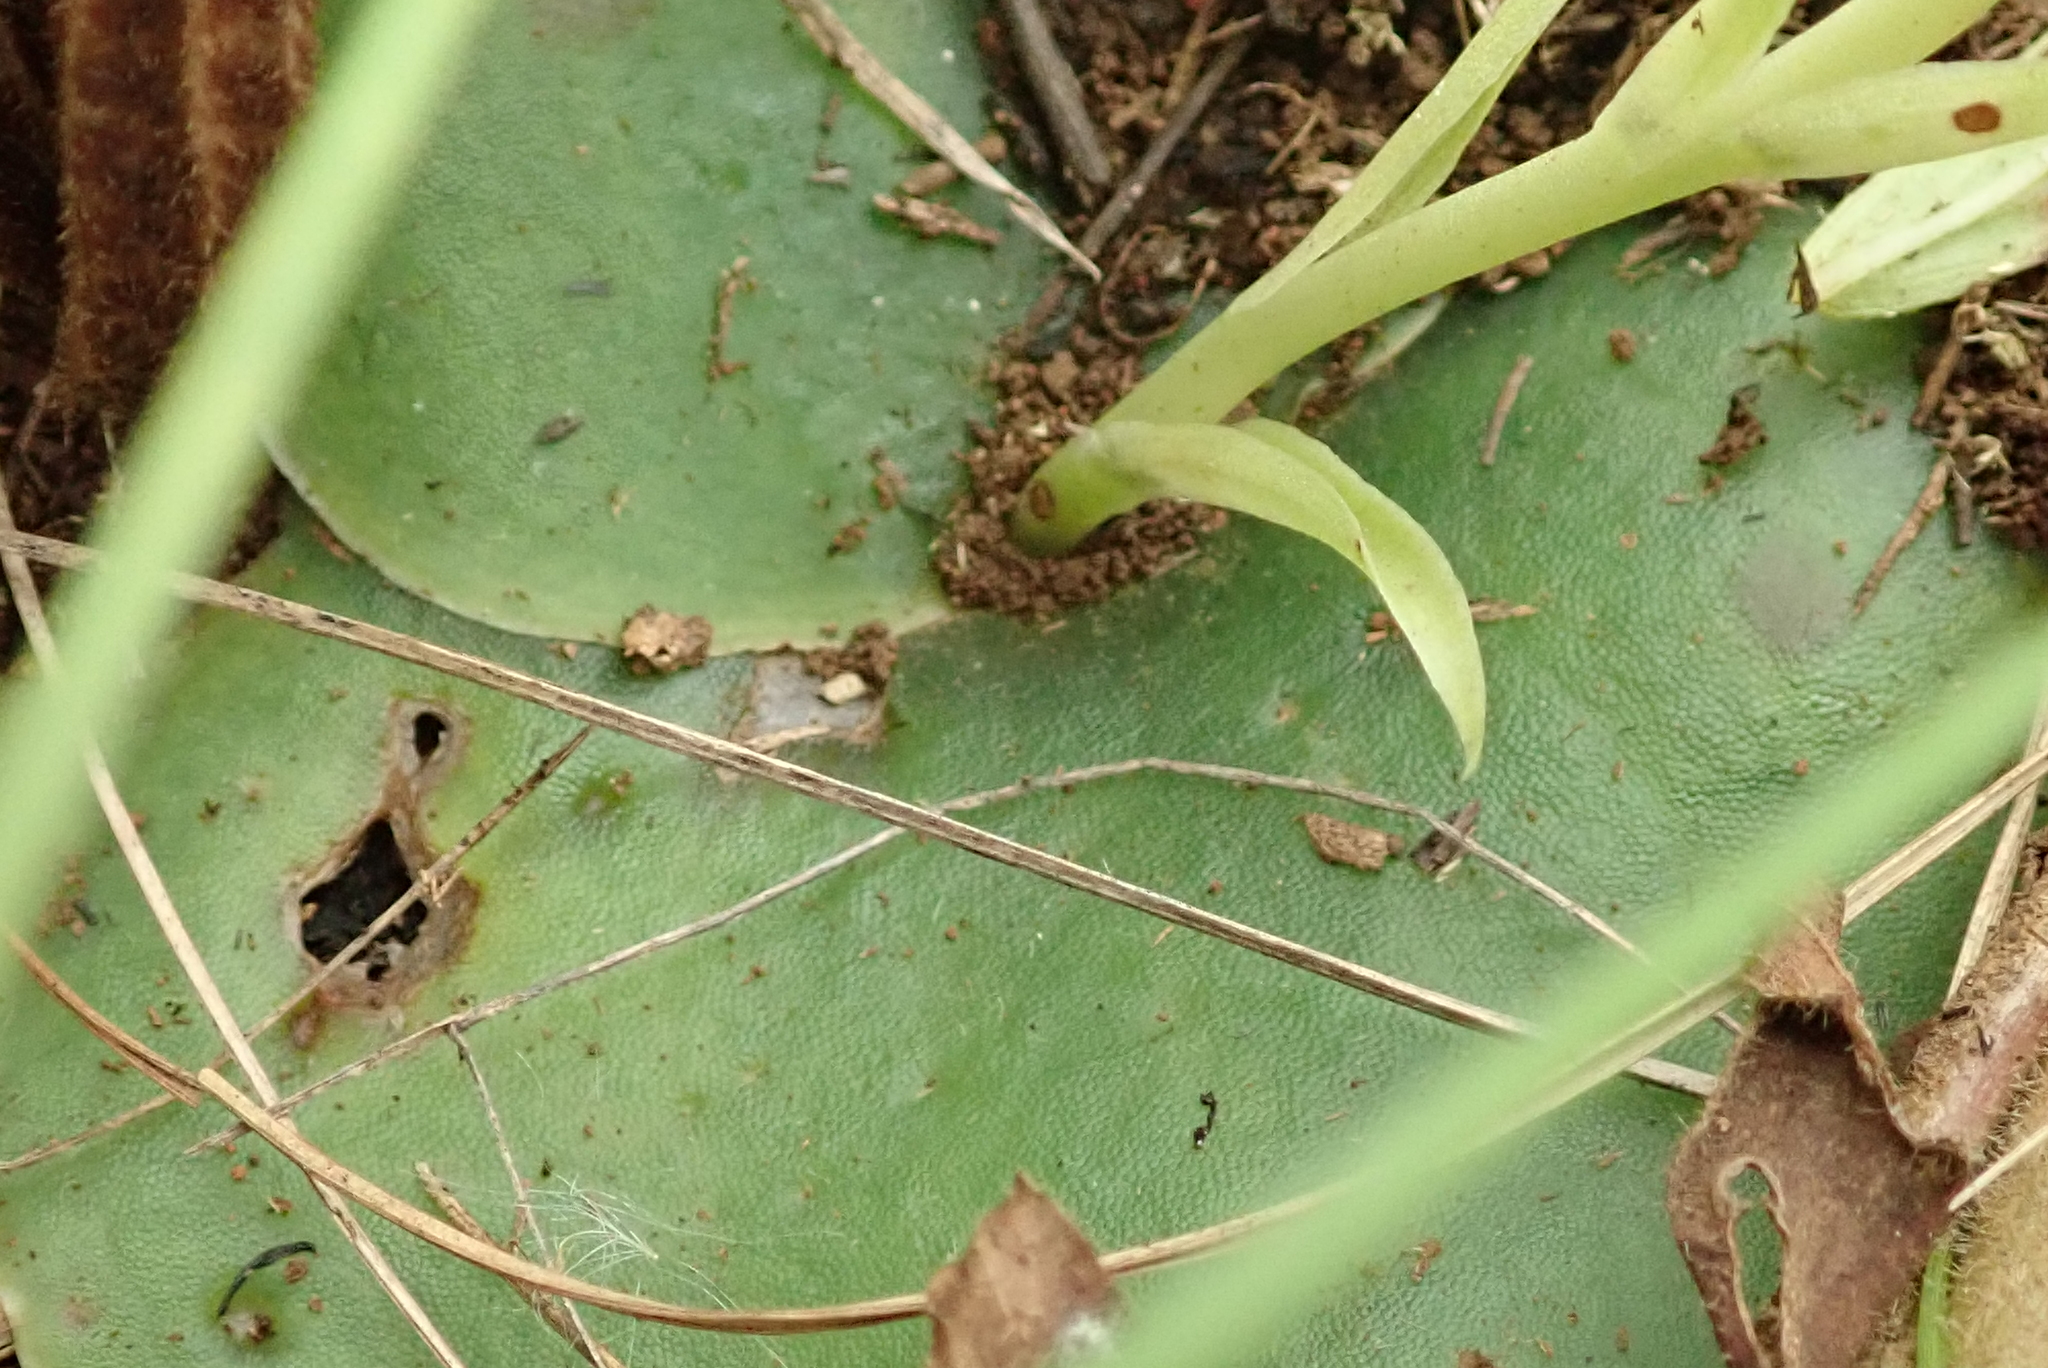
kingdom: Plantae
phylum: Tracheophyta
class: Liliopsida
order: Asparagales
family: Orchidaceae
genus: Habenaria
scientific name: Habenaria dregeana
